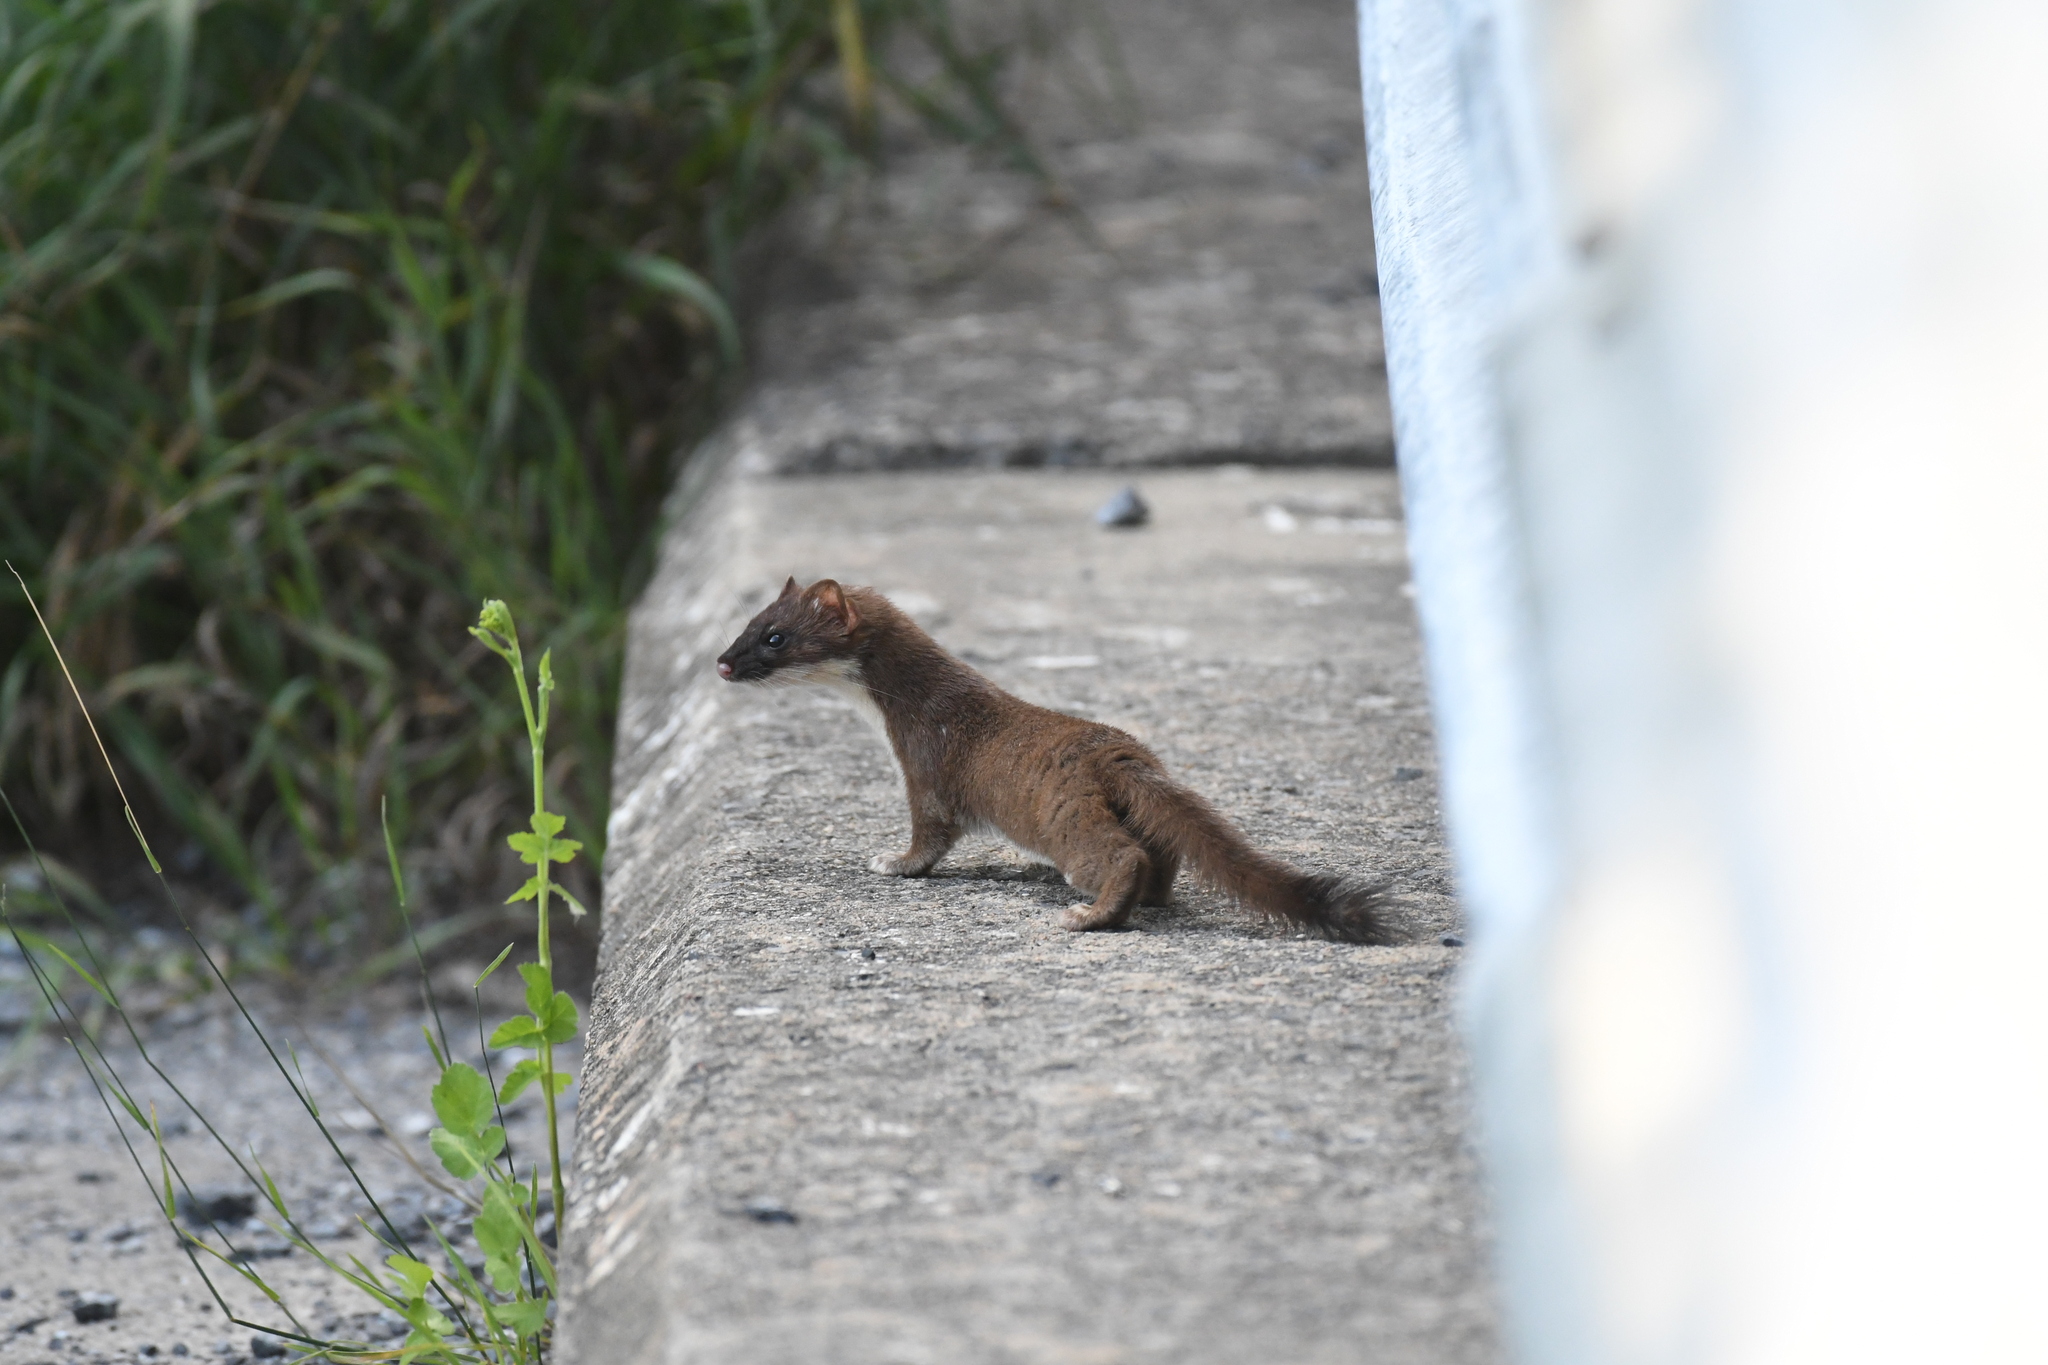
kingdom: Animalia
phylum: Chordata
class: Mammalia
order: Carnivora
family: Mustelidae
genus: Mustela
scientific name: Mustela
